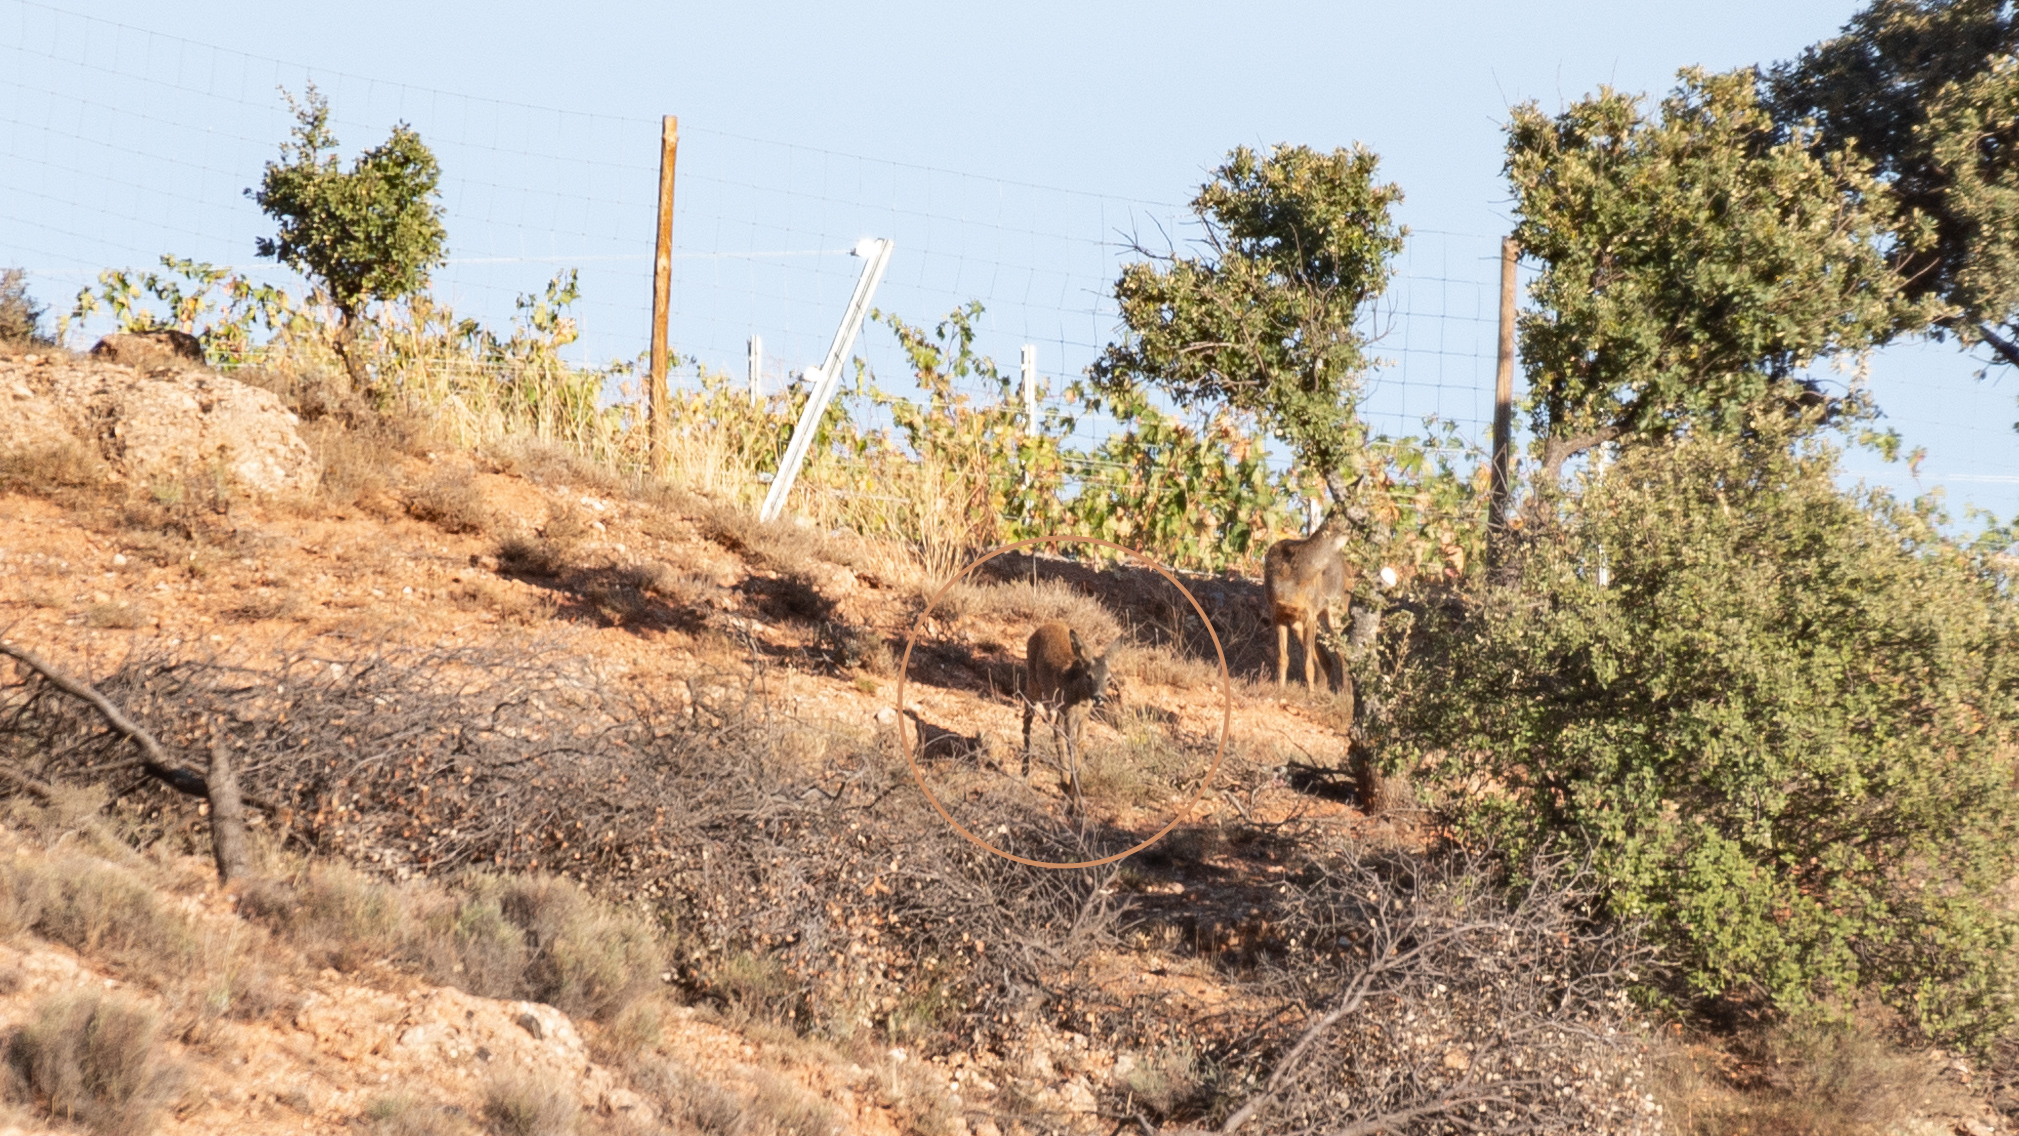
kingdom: Animalia
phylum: Chordata
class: Mammalia
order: Artiodactyla
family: Cervidae
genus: Capreolus
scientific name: Capreolus capreolus
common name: Western roe deer
